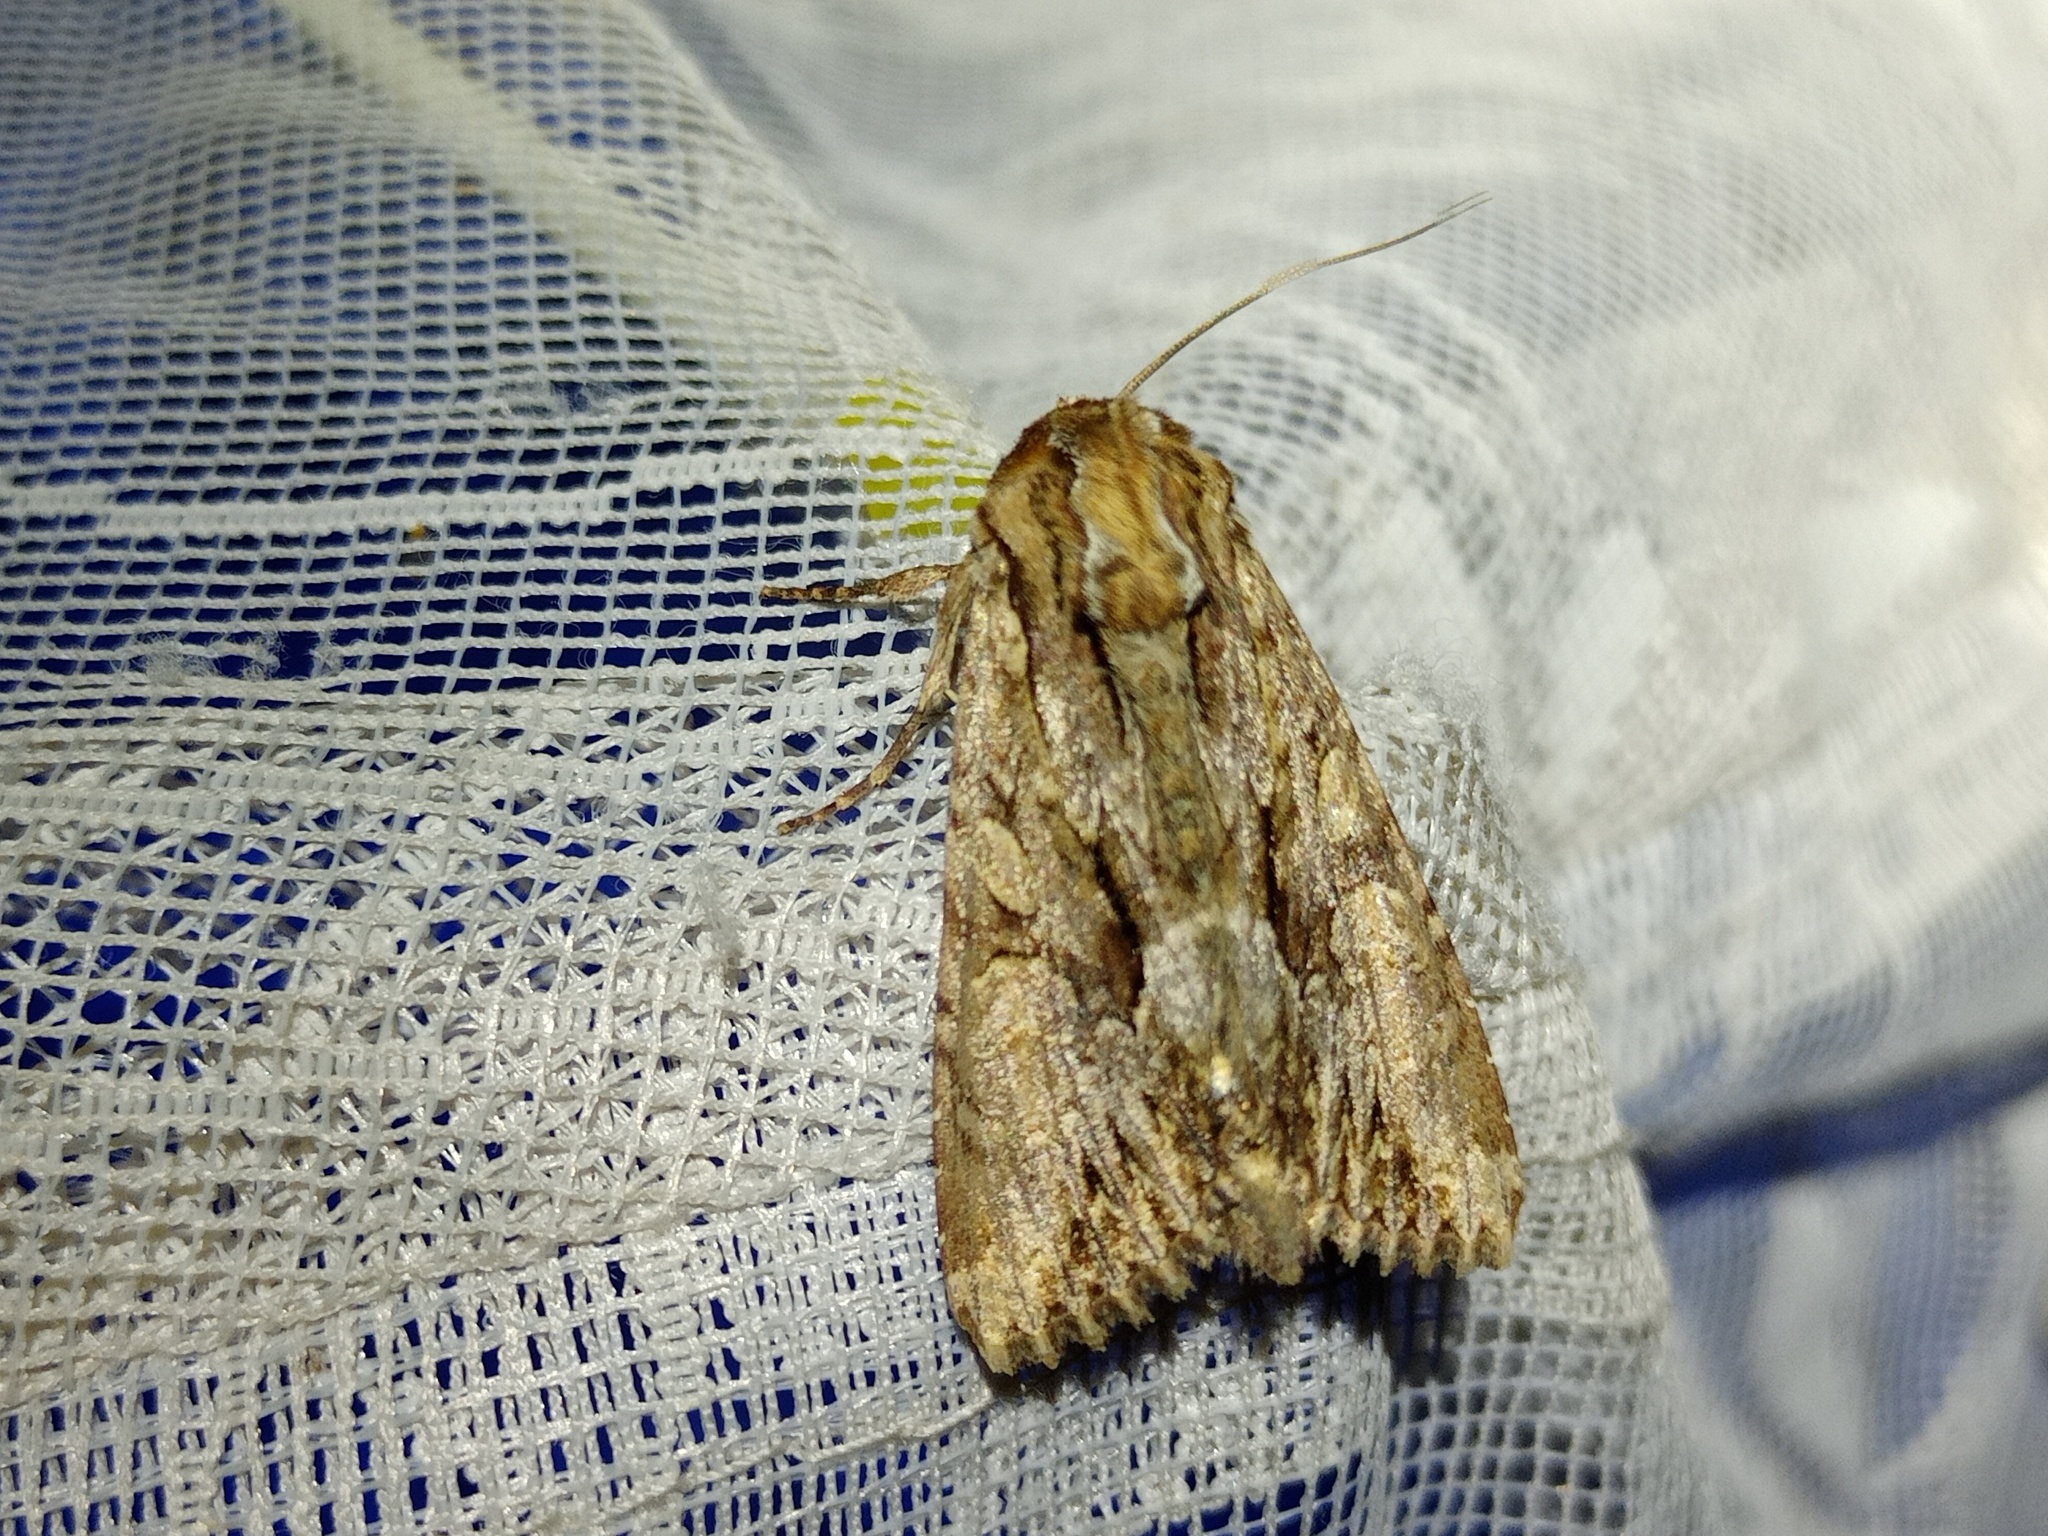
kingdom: Animalia
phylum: Arthropoda
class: Insecta
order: Lepidoptera
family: Noctuidae
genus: Apamea
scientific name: Apamea monoglypha
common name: Dark arches
